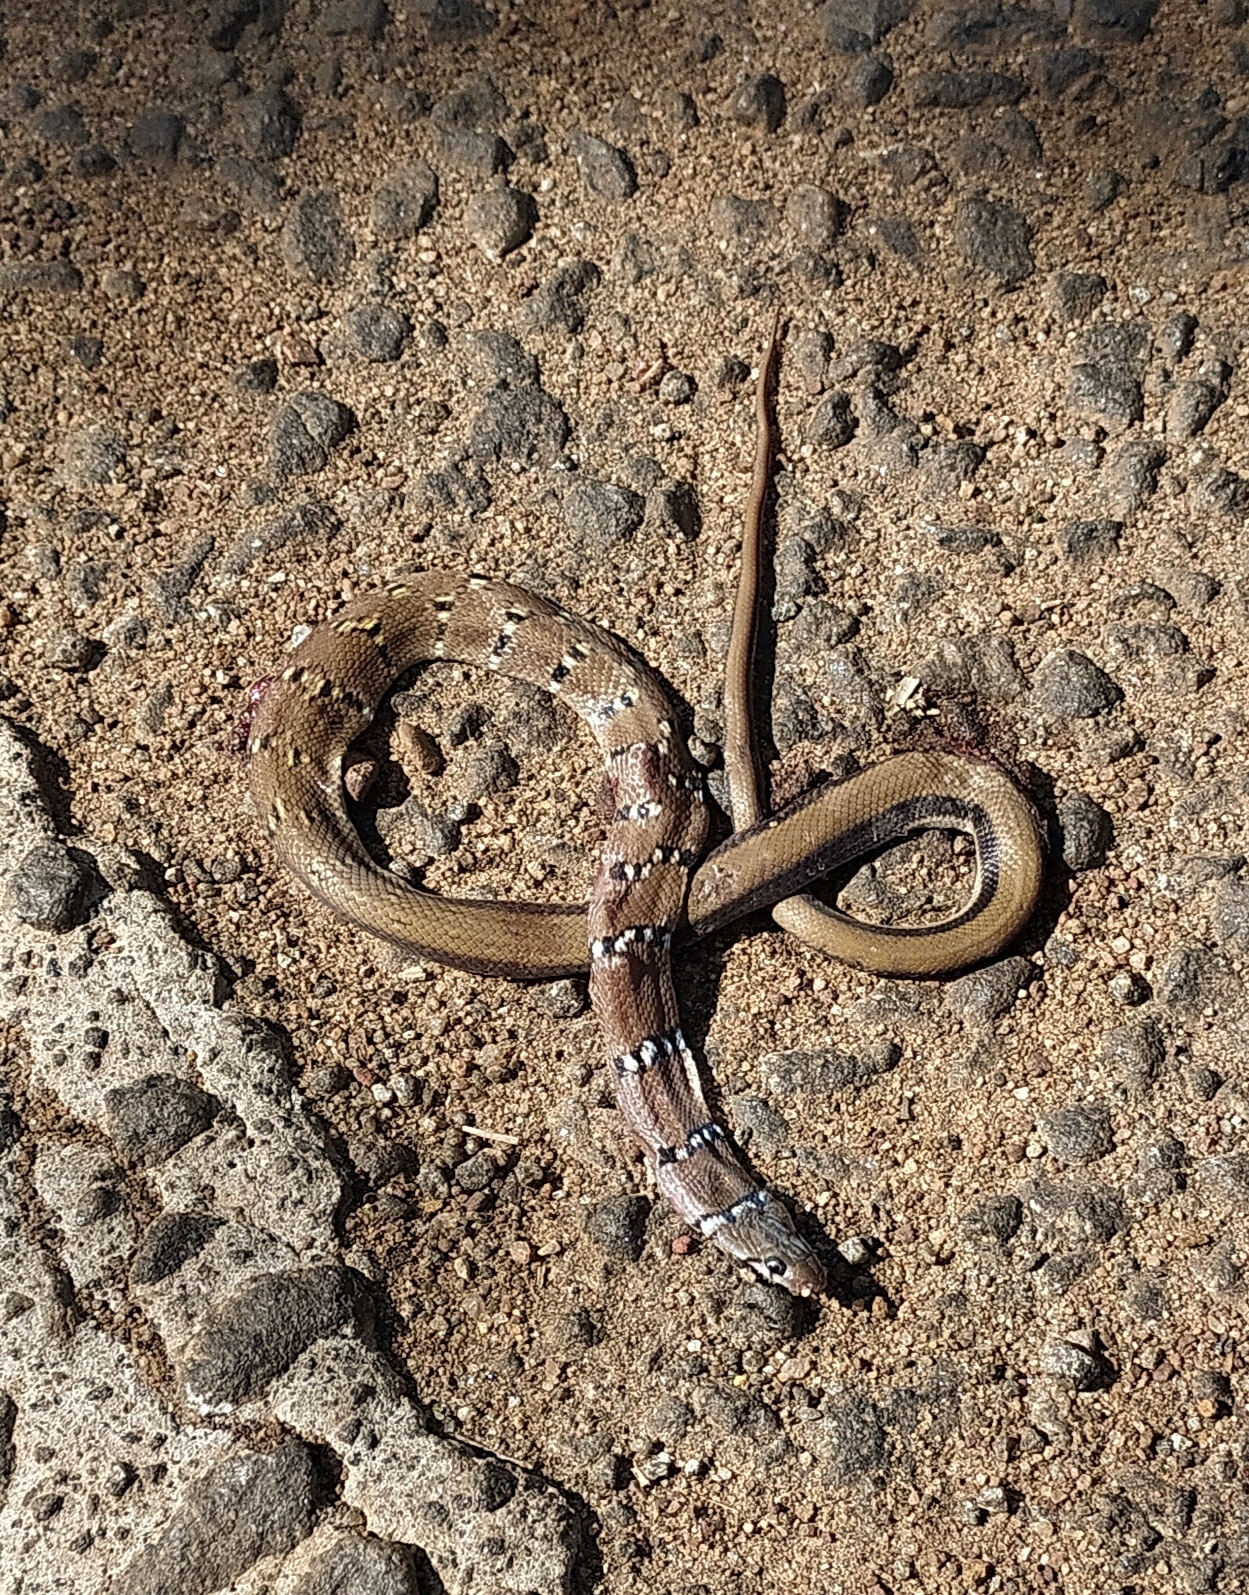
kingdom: Animalia
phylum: Chordata
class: Squamata
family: Colubridae
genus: Coelognathus
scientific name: Coelognathus helena
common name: Trinket snake
